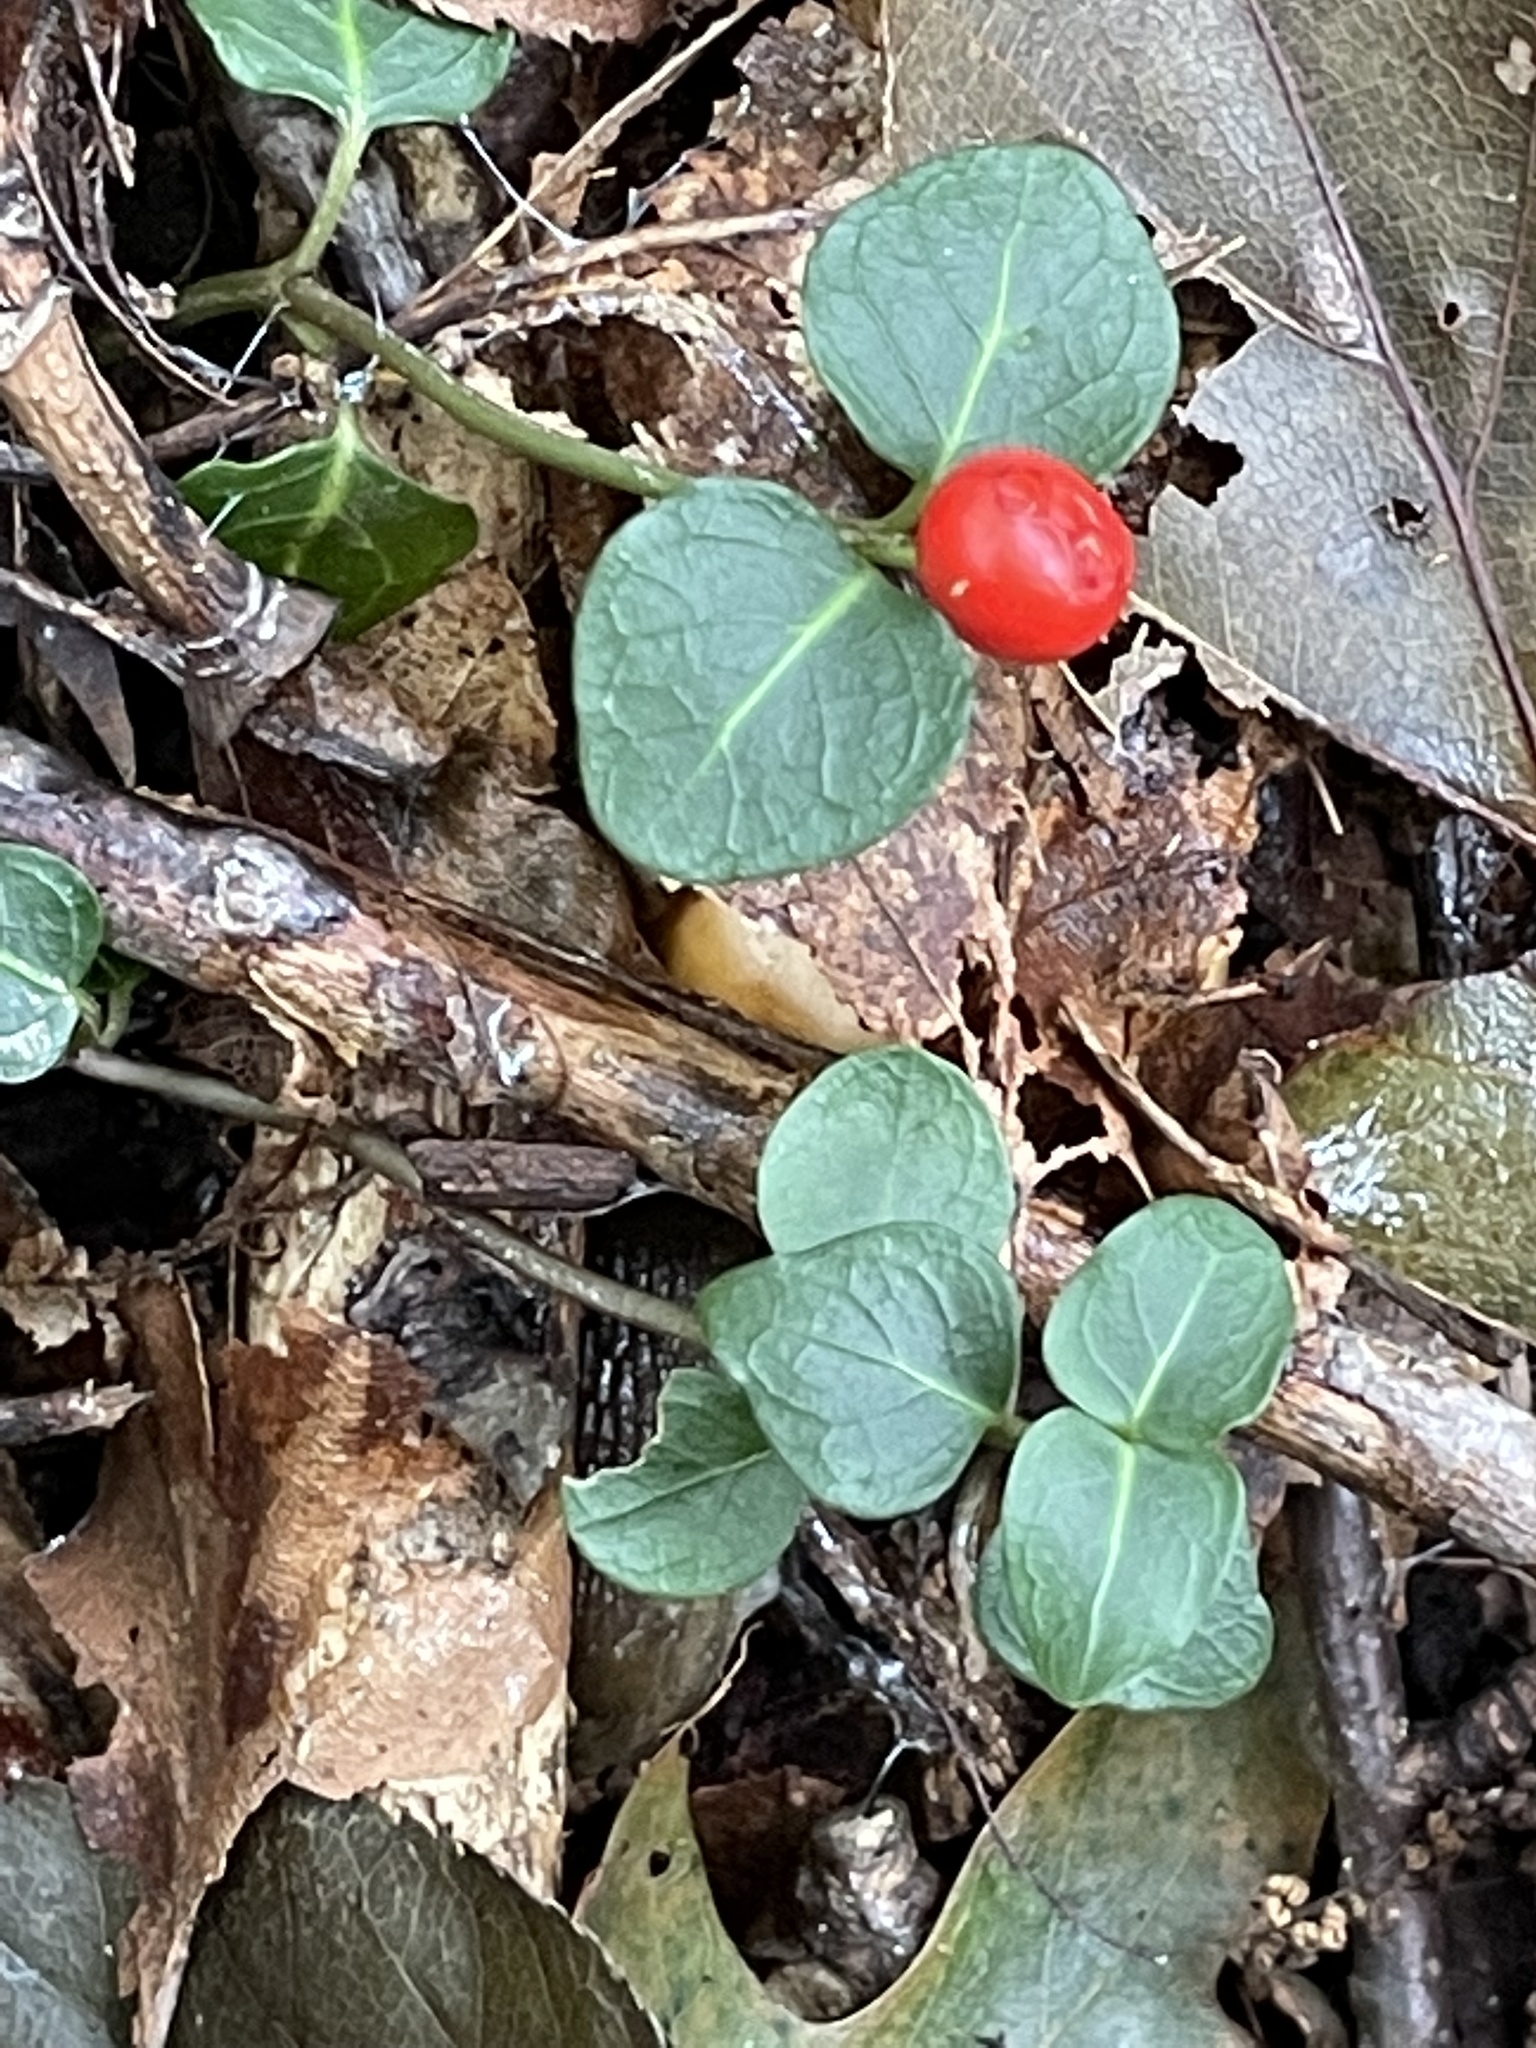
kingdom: Plantae
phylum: Tracheophyta
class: Magnoliopsida
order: Gentianales
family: Rubiaceae
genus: Mitchella
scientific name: Mitchella repens
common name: Partridge-berry
